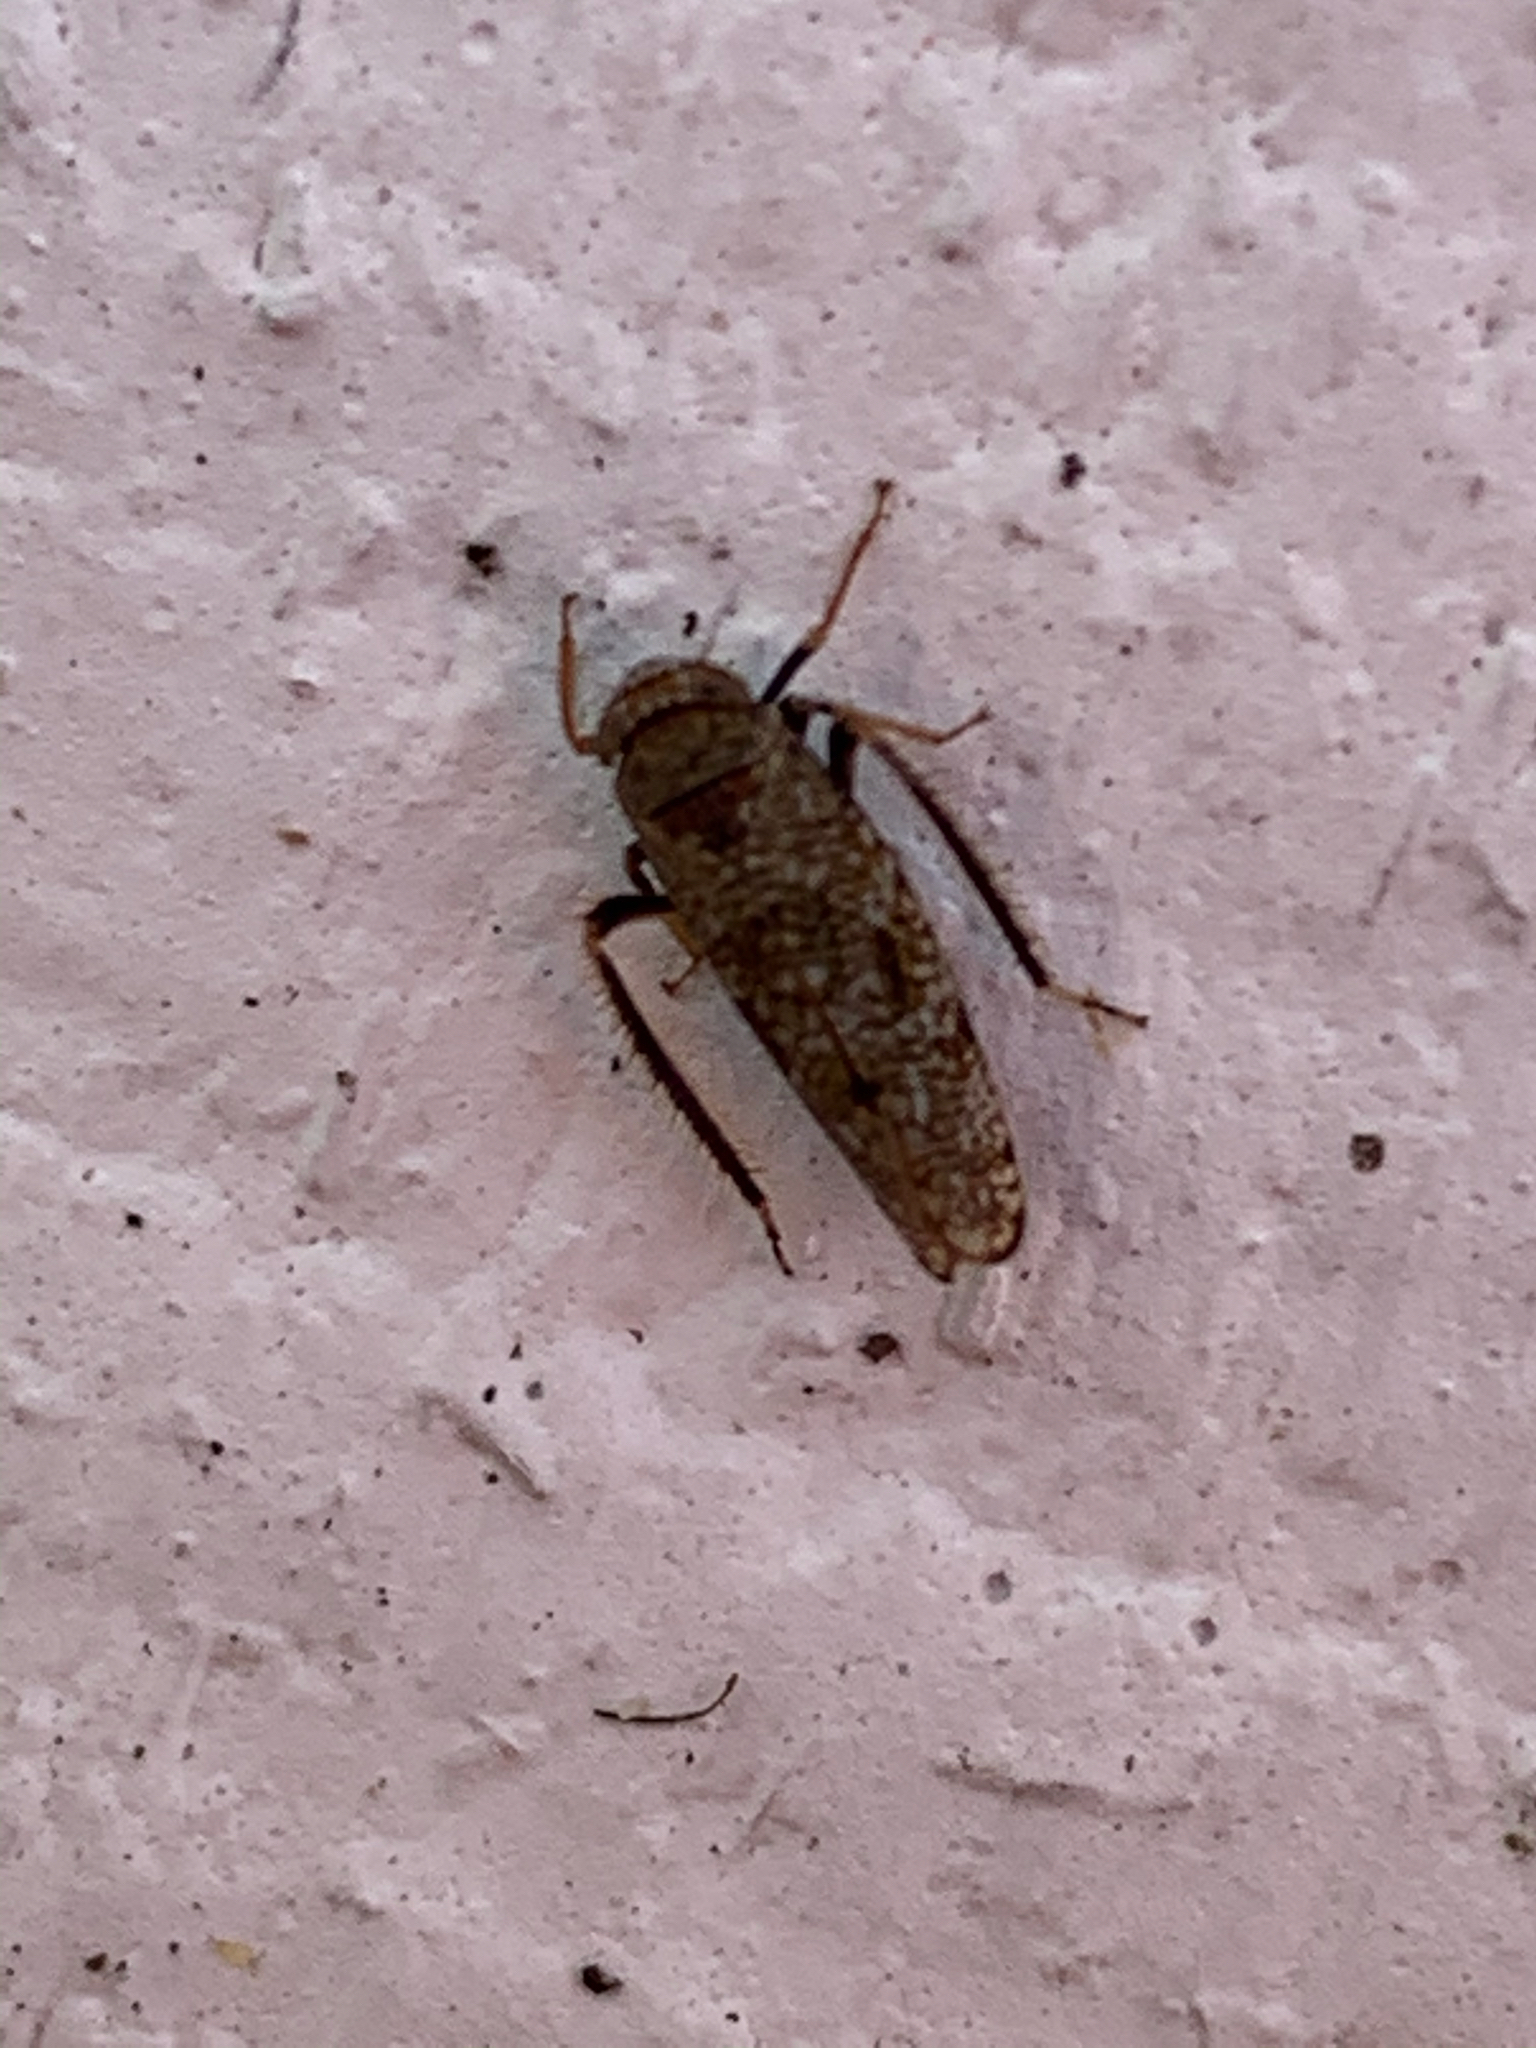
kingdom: Animalia
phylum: Arthropoda
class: Insecta
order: Hemiptera
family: Cicadellidae
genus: Orientus
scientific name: Orientus ishidae
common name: Japanese leafhopper
